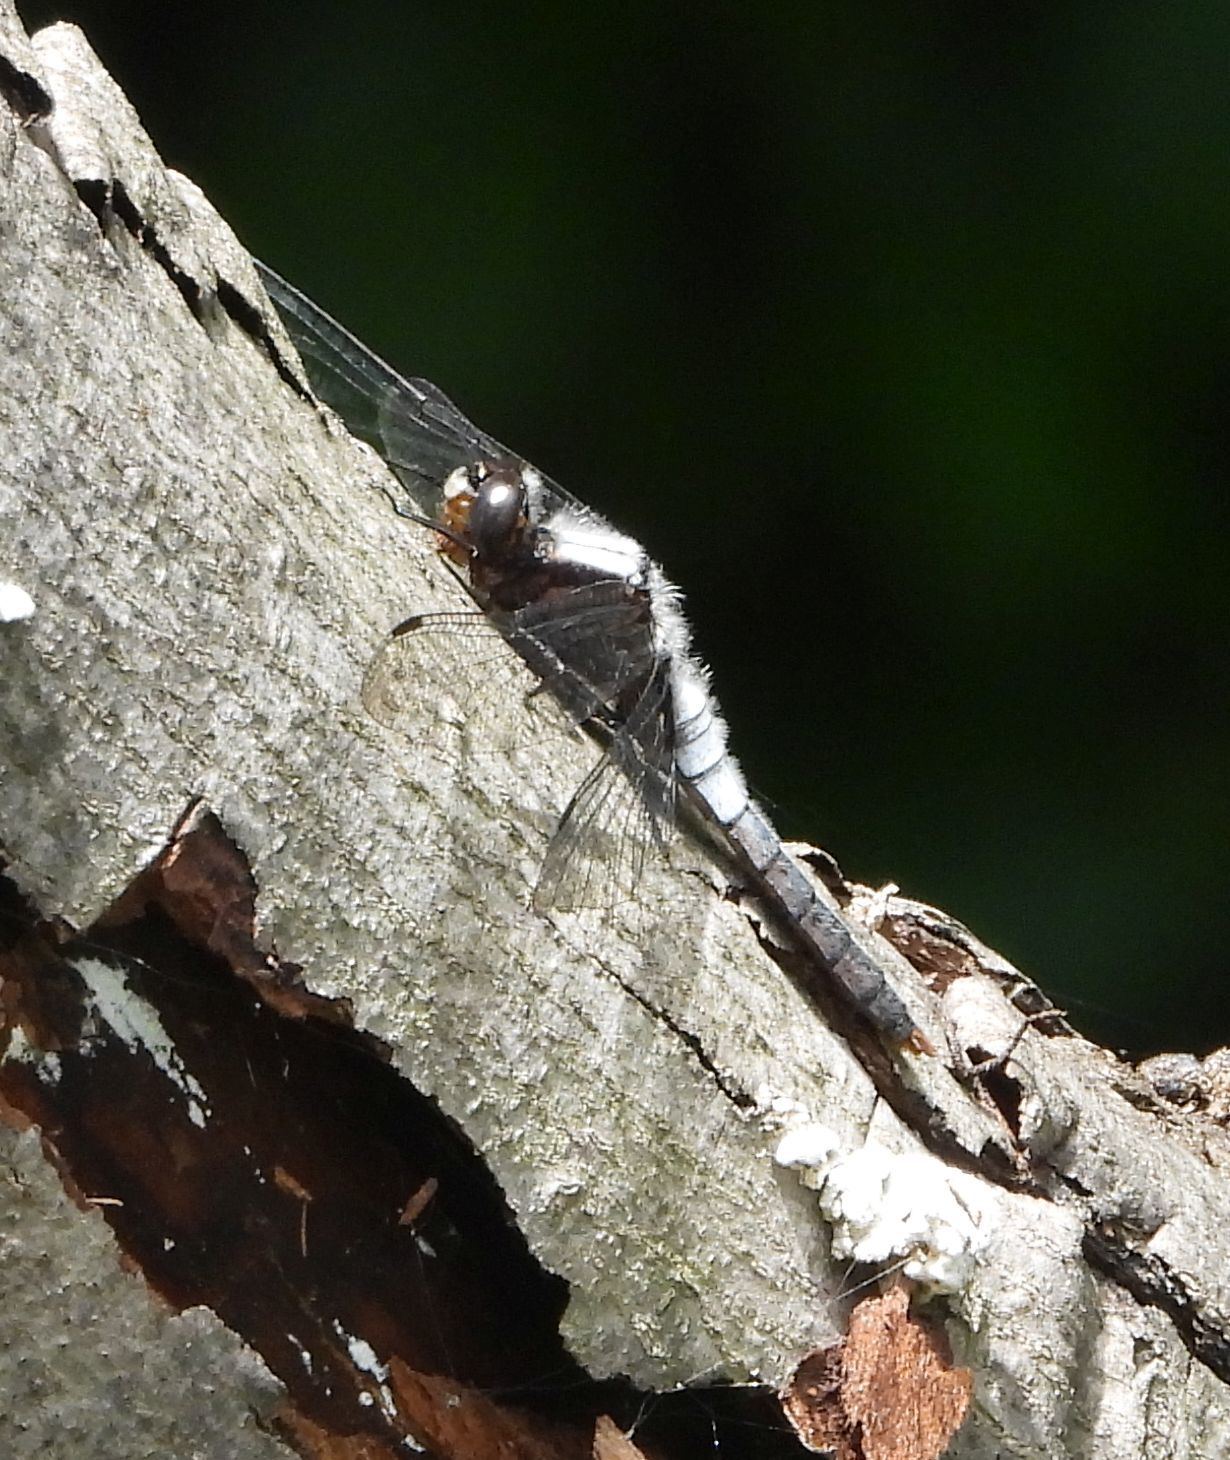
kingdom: Animalia
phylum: Arthropoda
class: Insecta
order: Odonata
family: Libellulidae
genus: Ladona
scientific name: Ladona julia
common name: Chalk-fronted corporal
